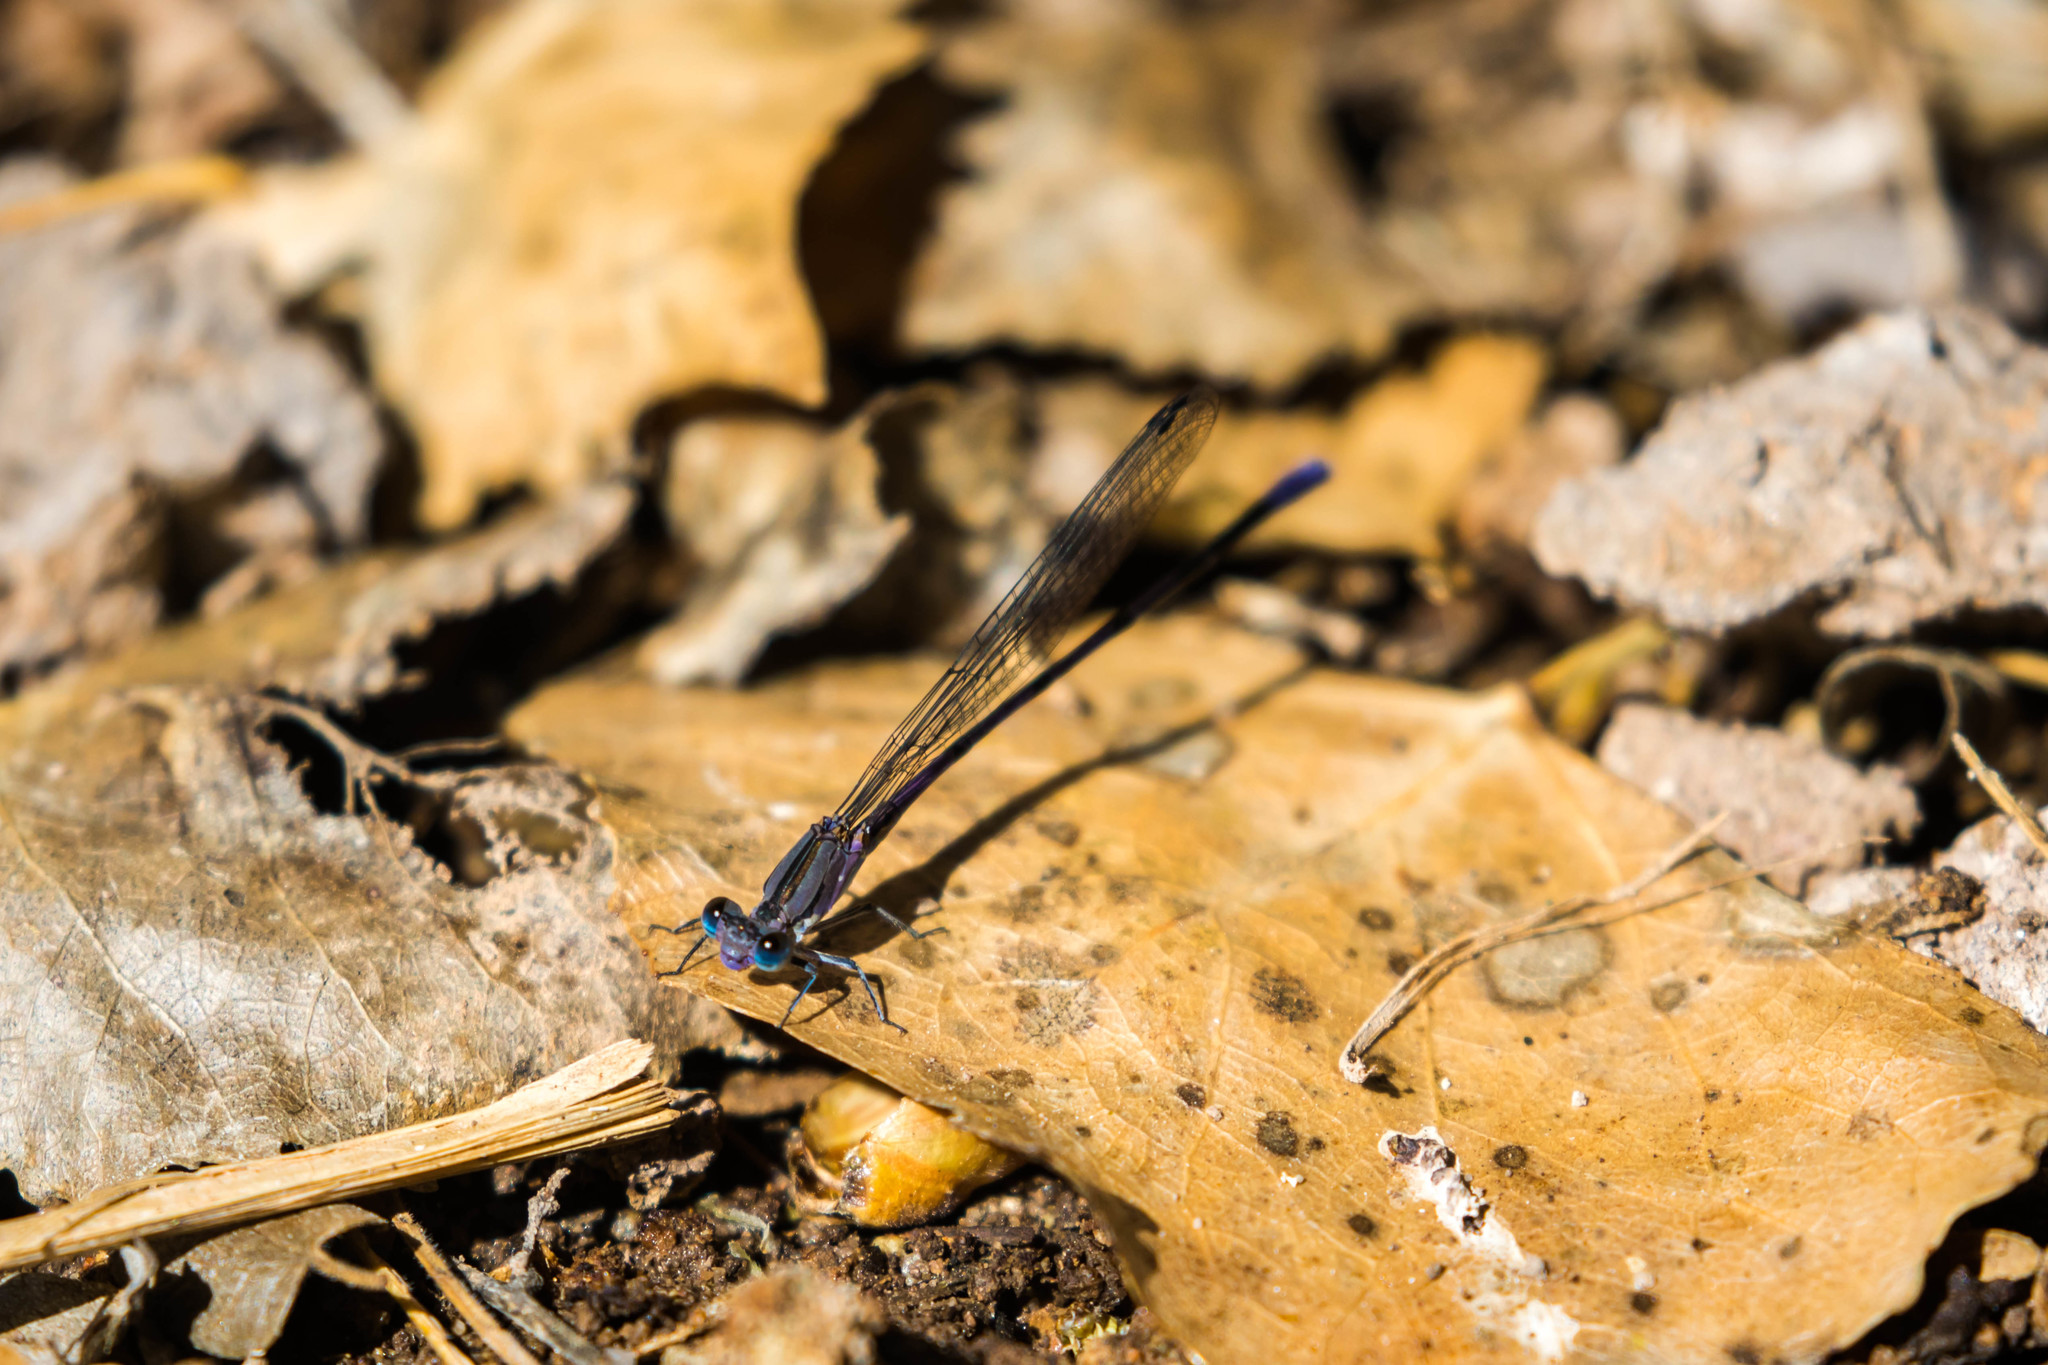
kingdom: Animalia
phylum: Arthropoda
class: Insecta
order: Odonata
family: Coenagrionidae
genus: Argia
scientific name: Argia funebris
